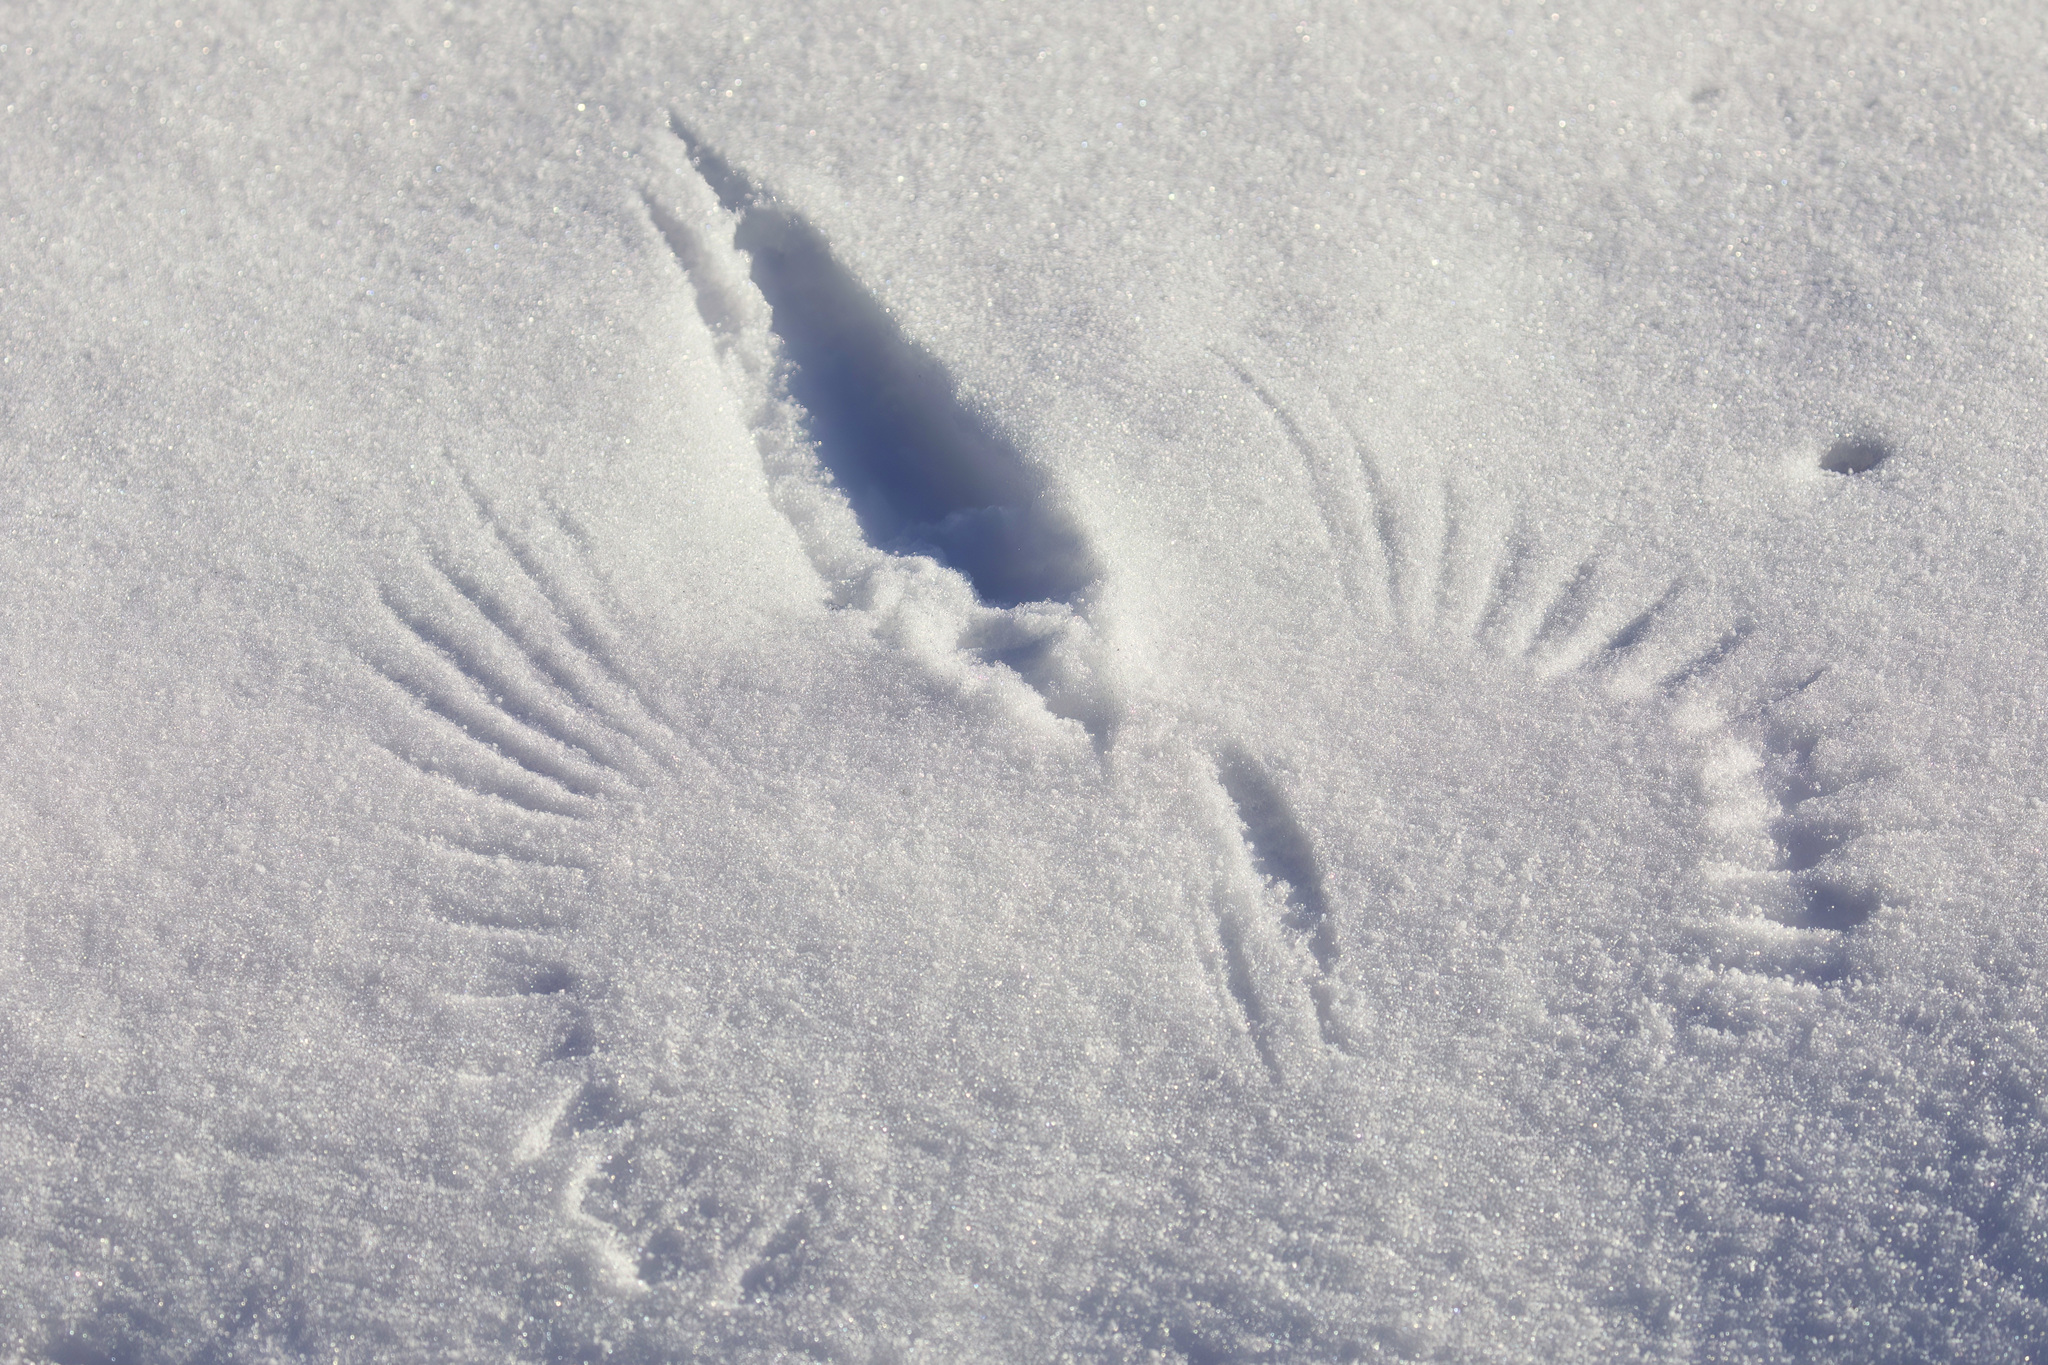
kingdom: Animalia
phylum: Chordata
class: Aves
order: Galliformes
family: Phasianidae
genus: Phasianus
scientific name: Phasianus colchicus
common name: Common pheasant
